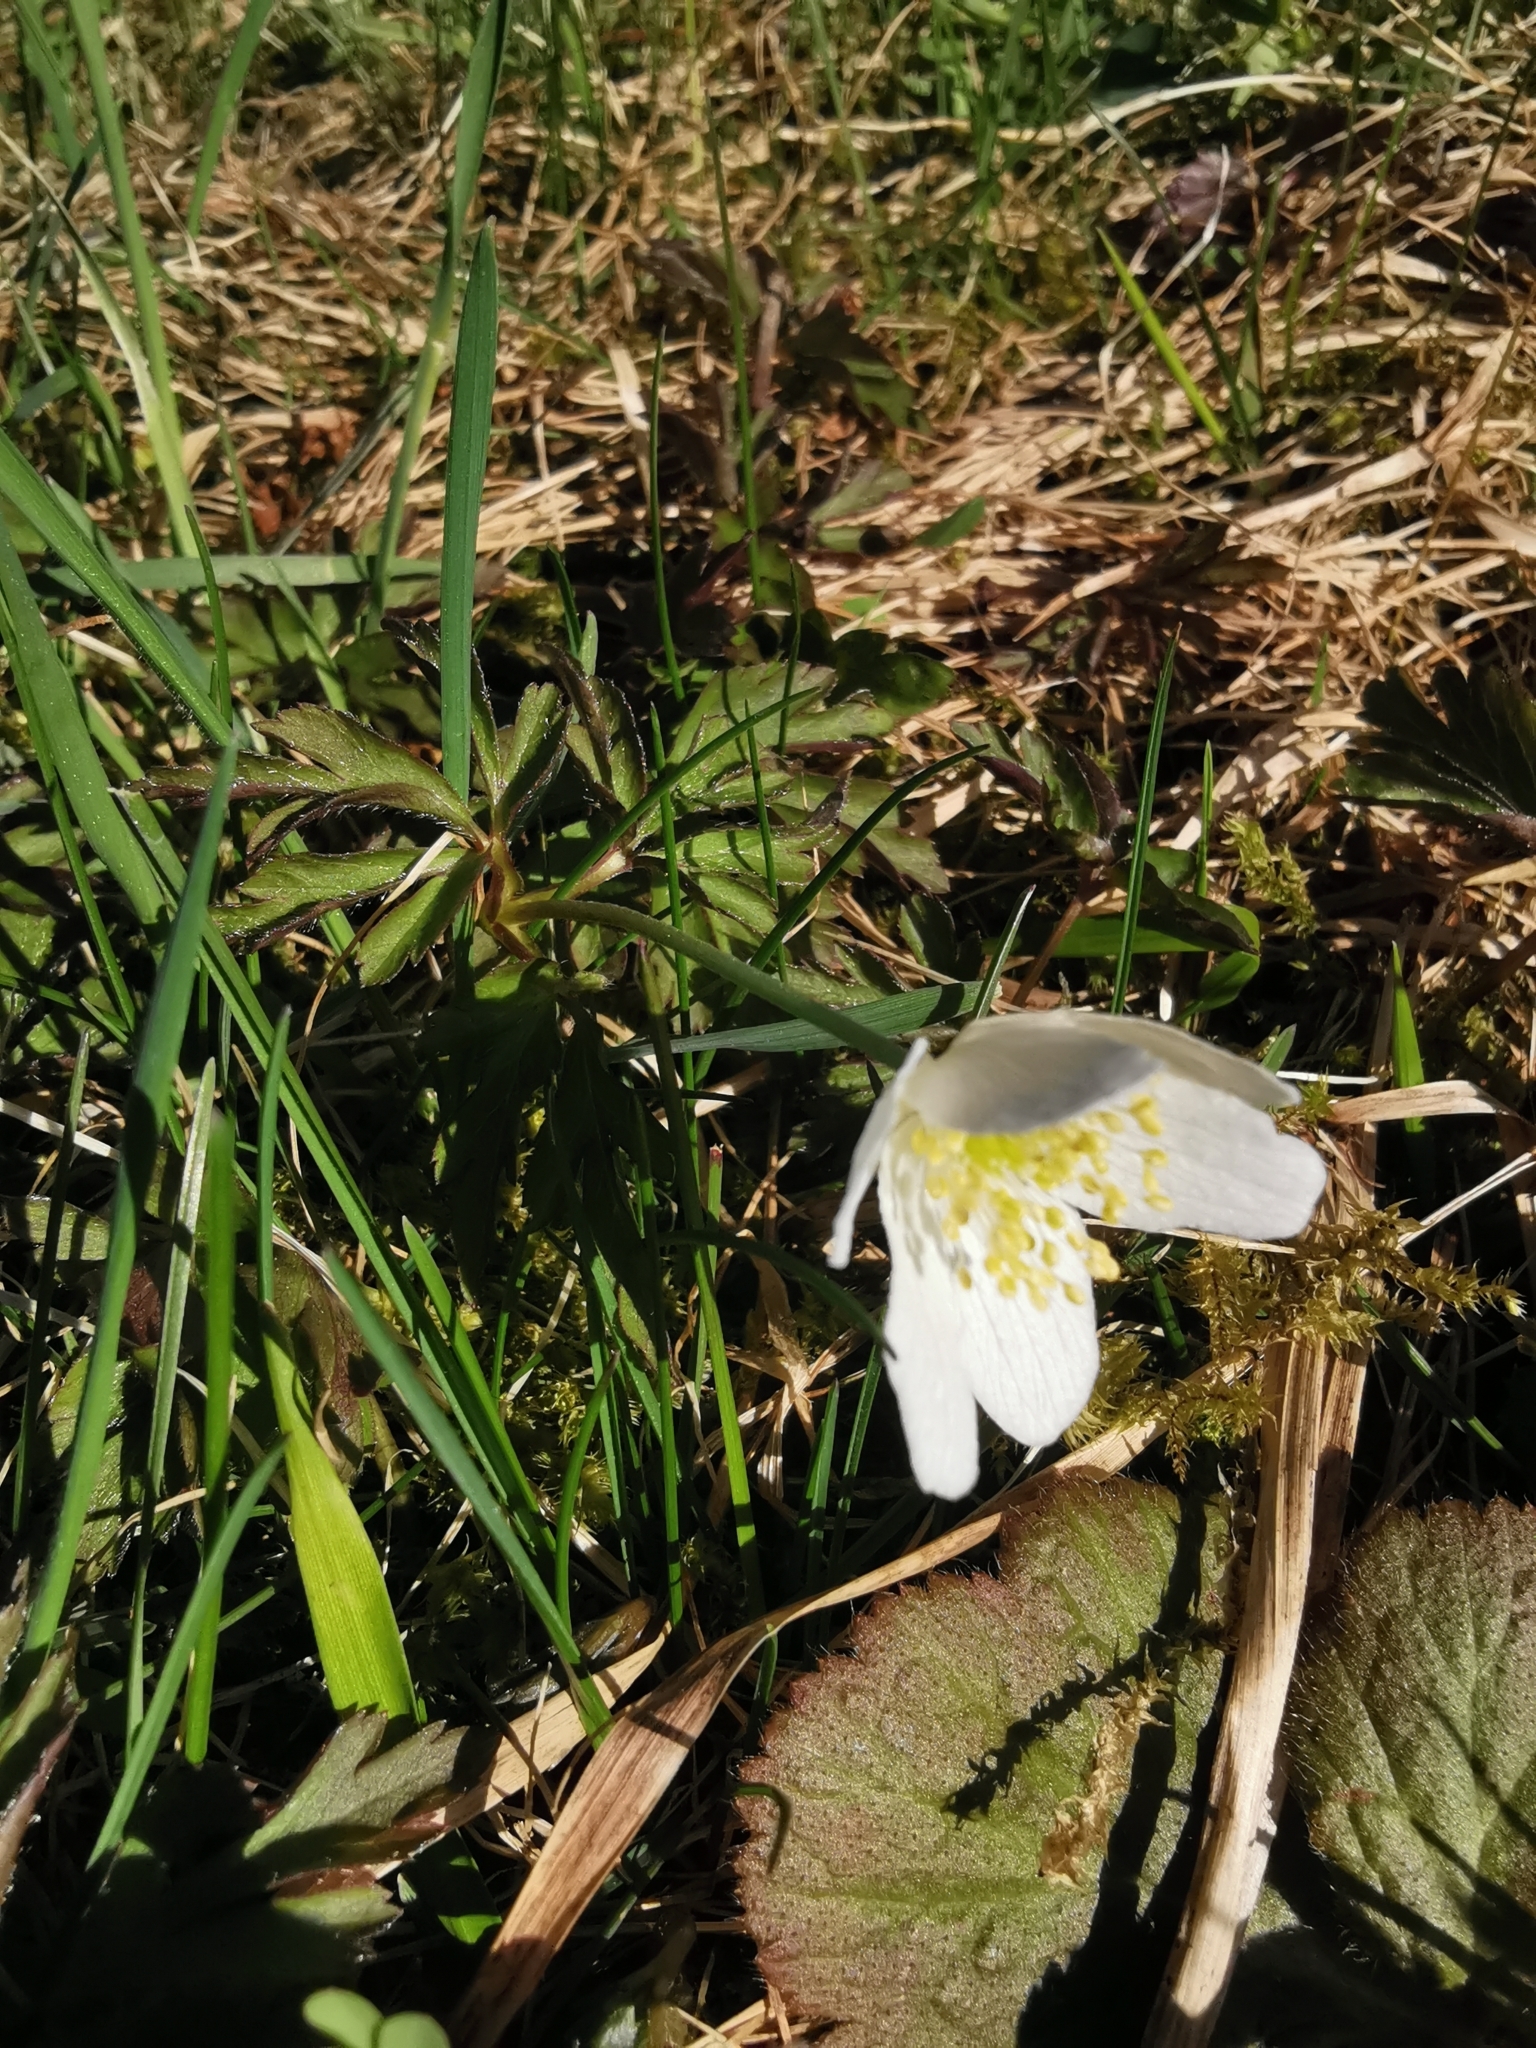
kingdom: Plantae
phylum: Tracheophyta
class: Magnoliopsida
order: Ranunculales
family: Ranunculaceae
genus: Anemone
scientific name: Anemone nemorosa
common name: Wood anemone
